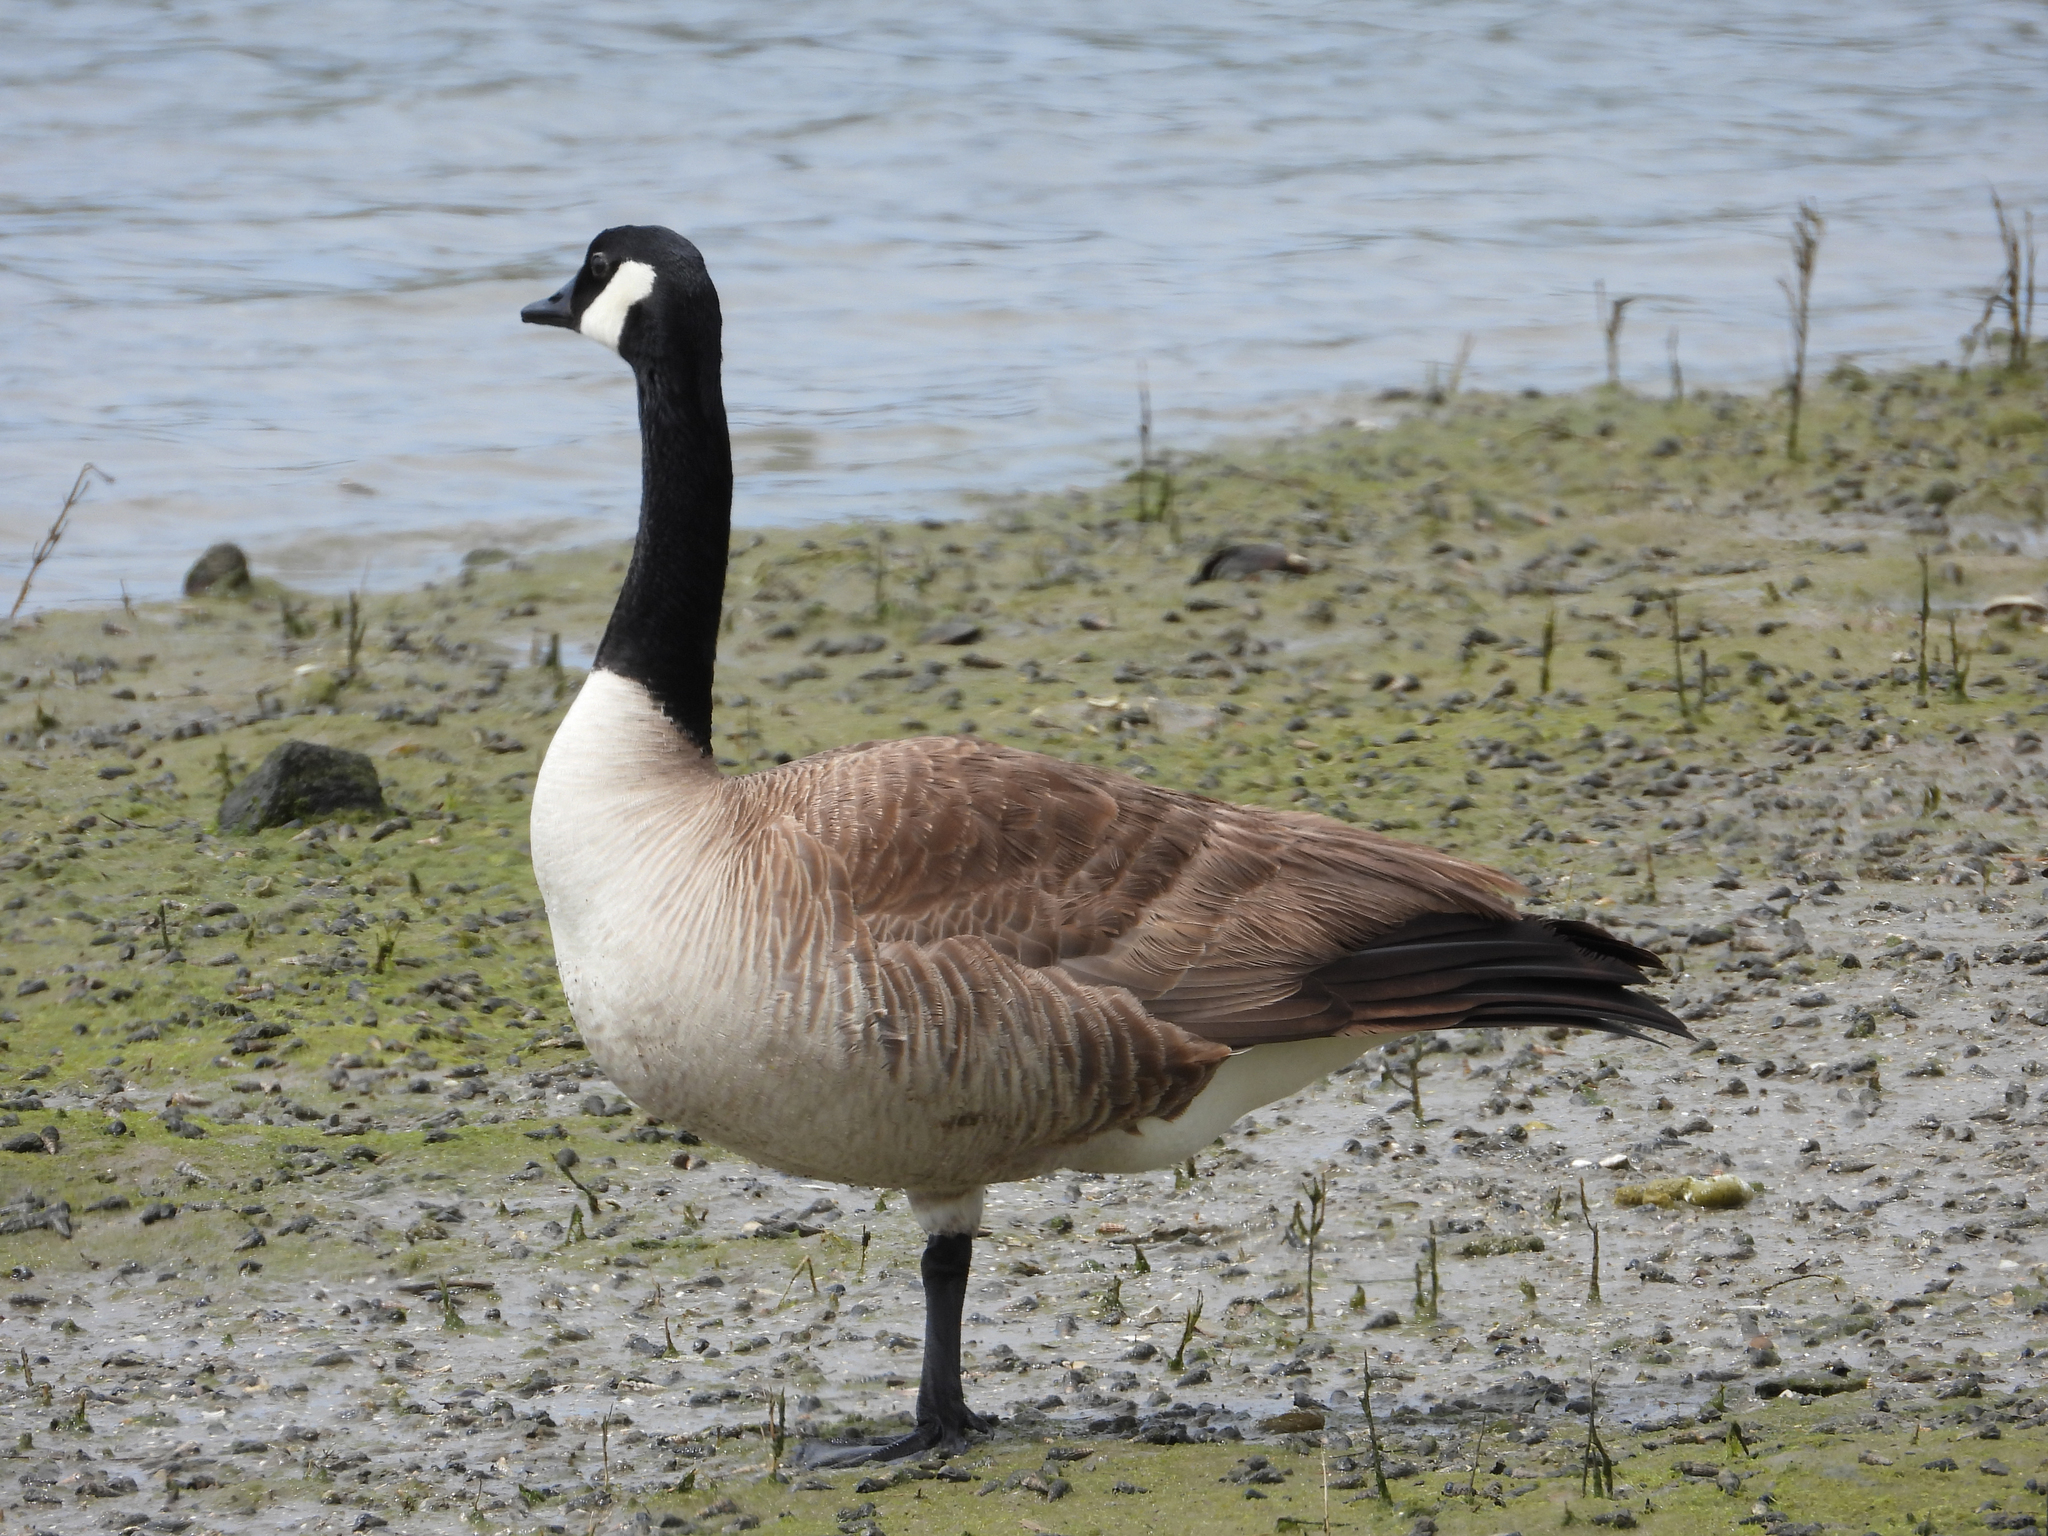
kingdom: Animalia
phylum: Chordata
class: Aves
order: Anseriformes
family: Anatidae
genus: Branta
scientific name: Branta canadensis
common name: Canada goose
